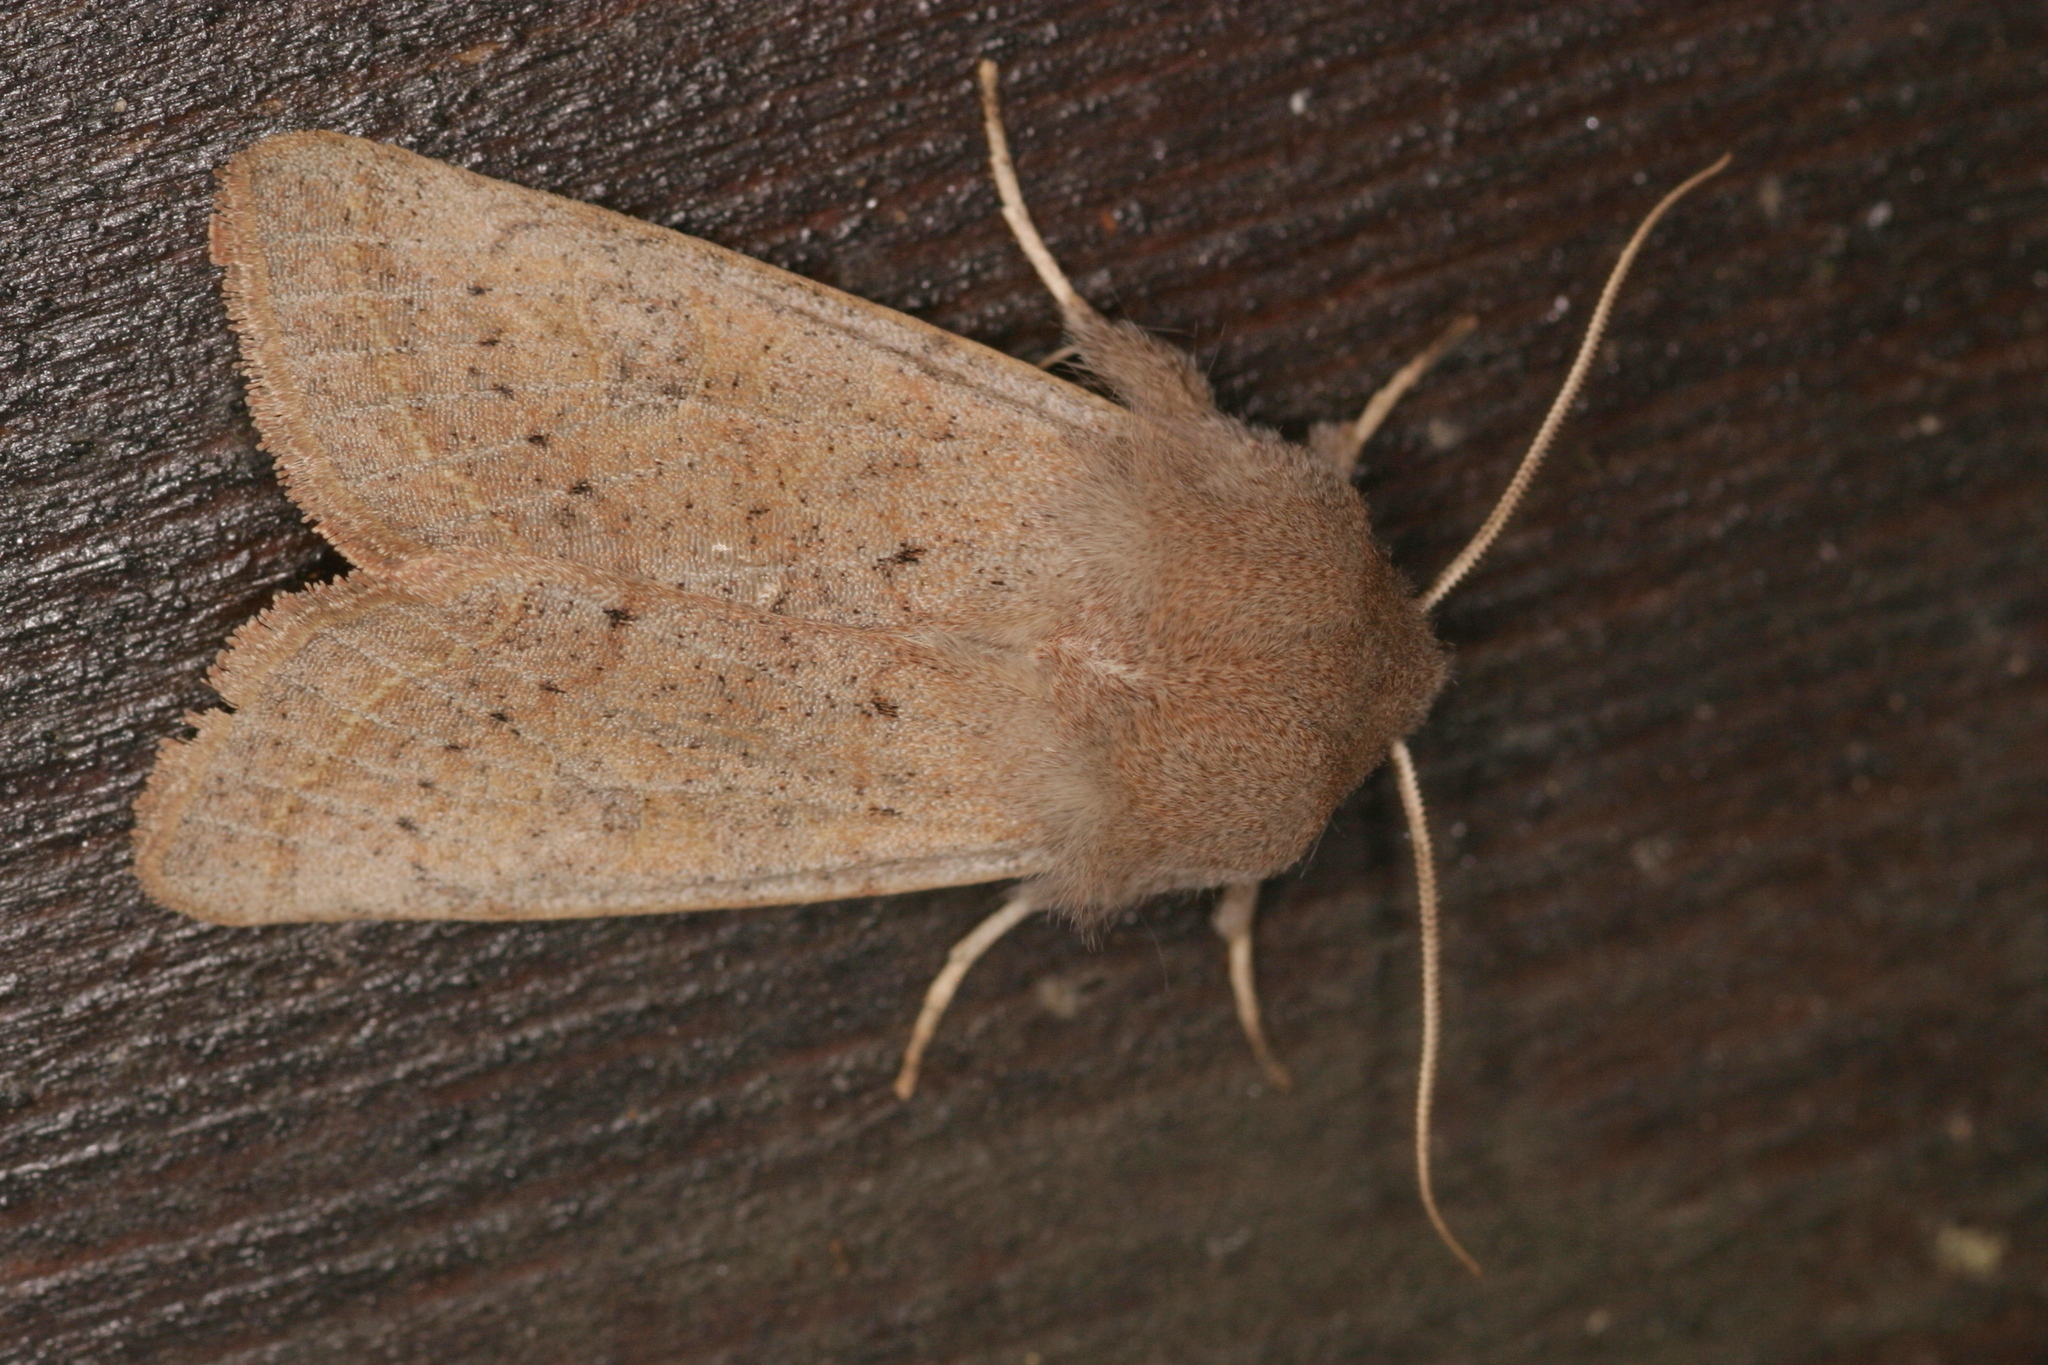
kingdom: Animalia
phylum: Arthropoda
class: Insecta
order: Lepidoptera
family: Noctuidae
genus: Orthosia
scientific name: Orthosia cerasi
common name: Common quaker
